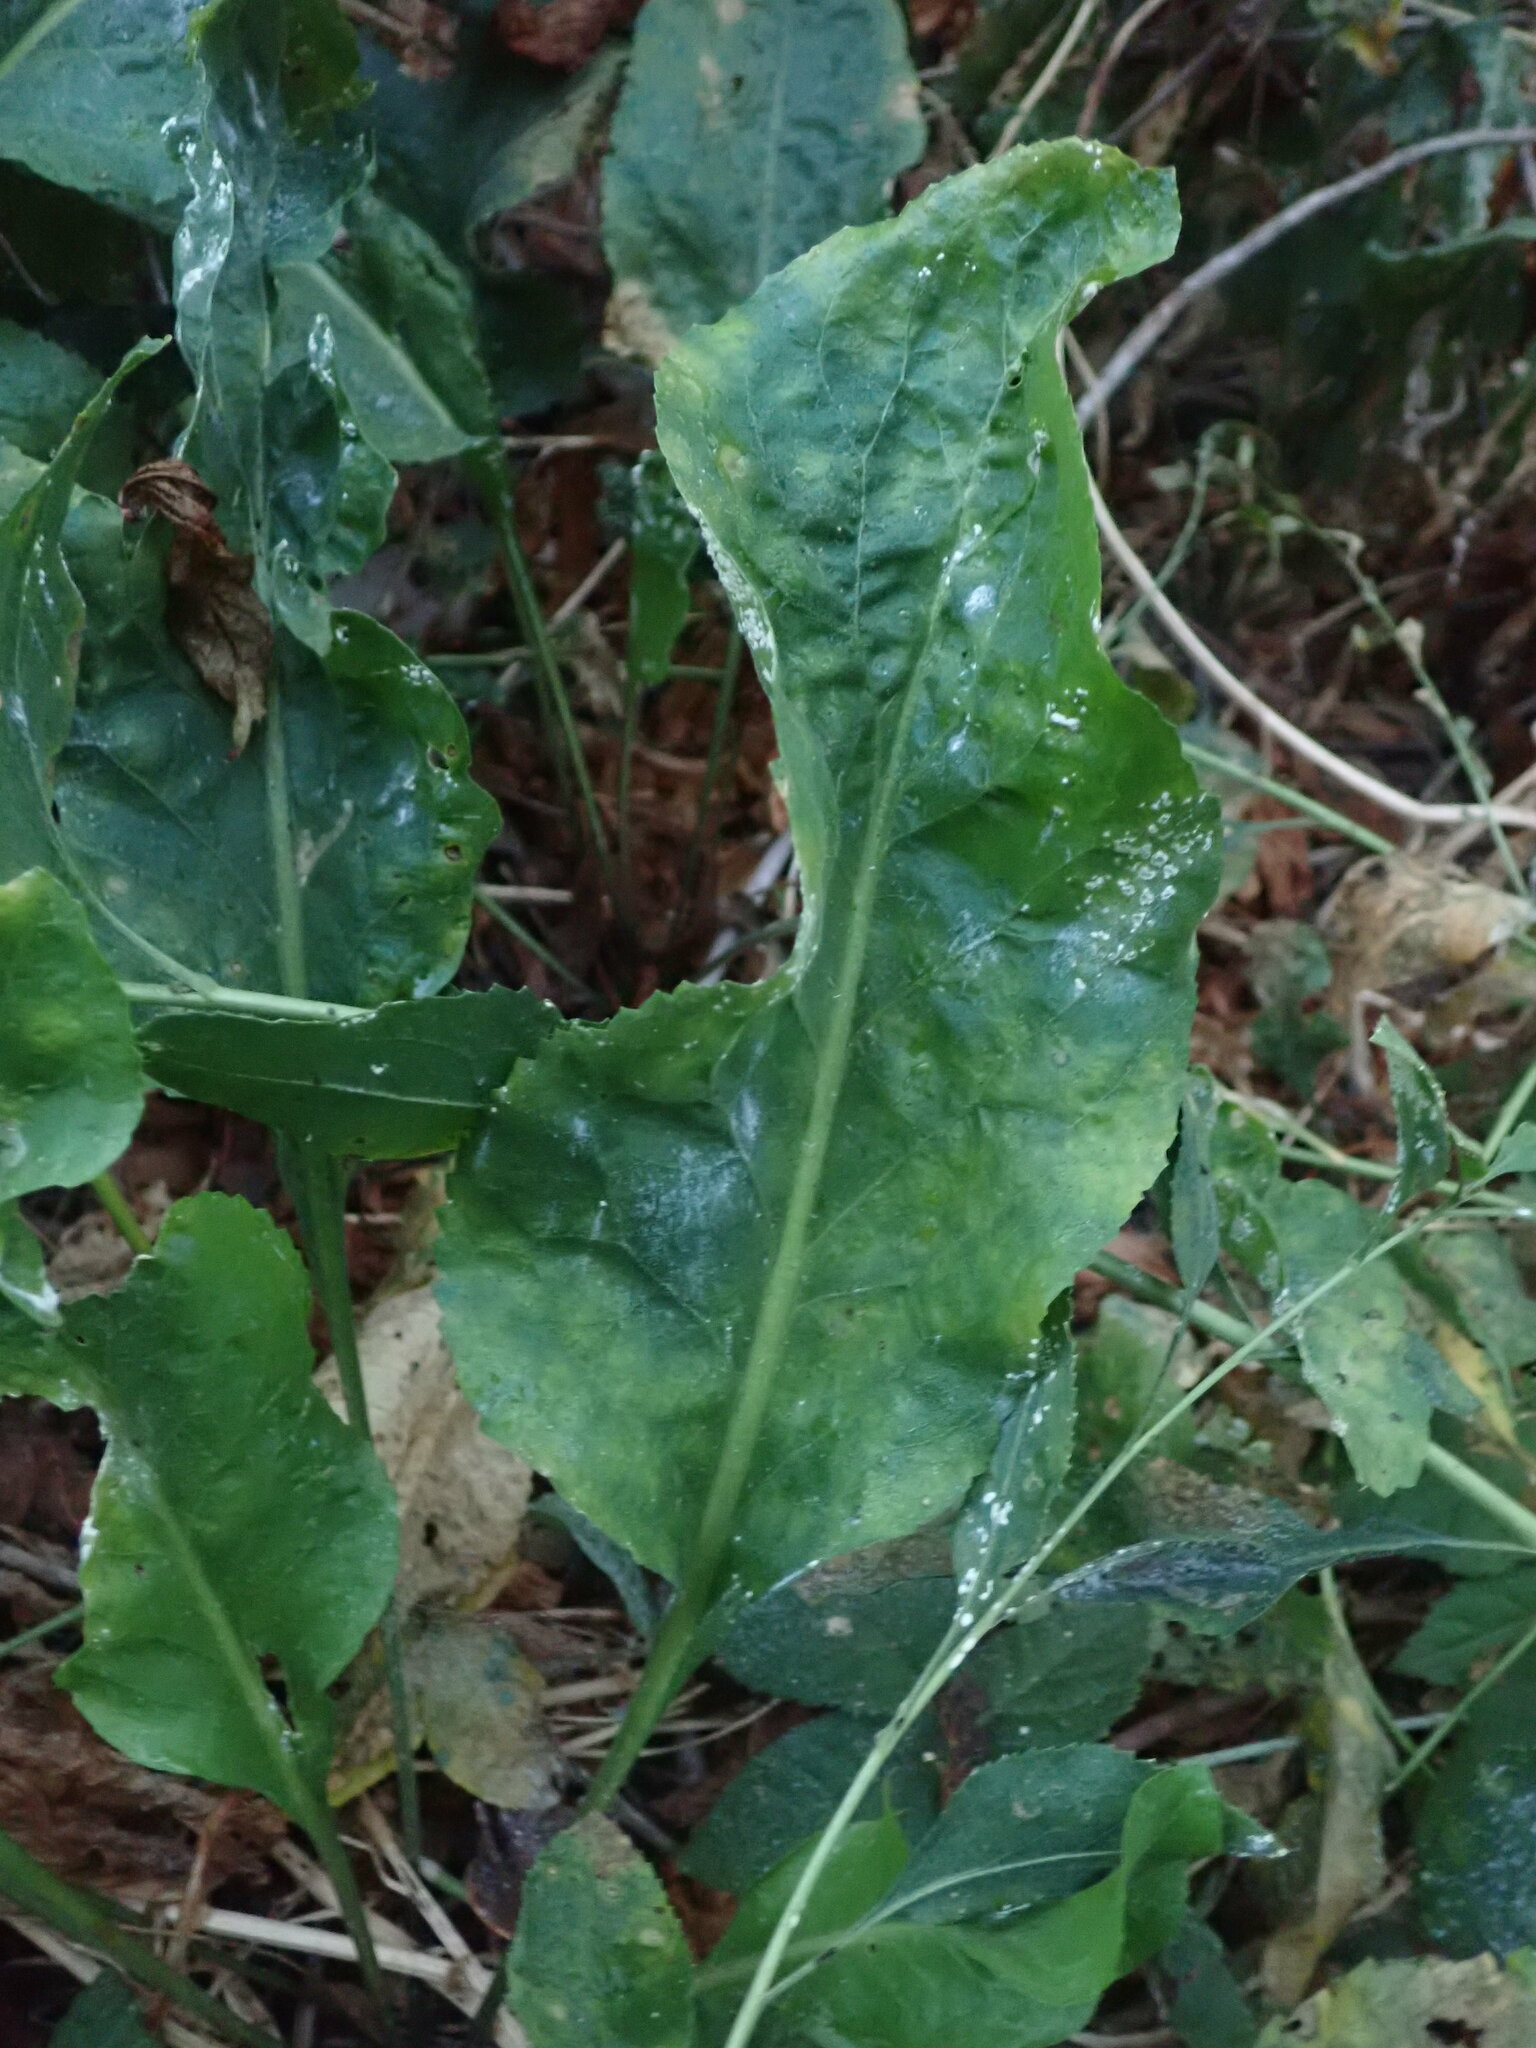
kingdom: Chromista
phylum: Oomycota
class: Peronosporea
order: Albuginales
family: Albuginaceae
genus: Albugo
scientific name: Albugo lepidii
